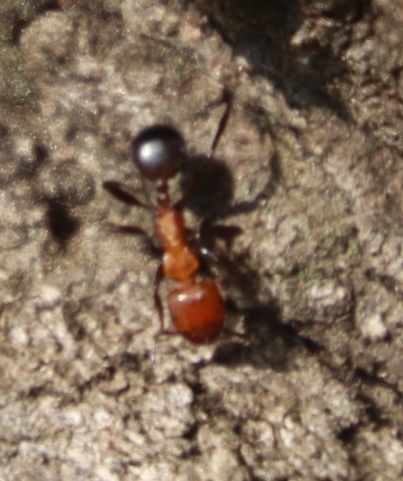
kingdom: Animalia
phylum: Arthropoda
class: Insecta
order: Hymenoptera
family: Formicidae
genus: Atopomyrmex
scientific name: Atopomyrmex mocquerysi
